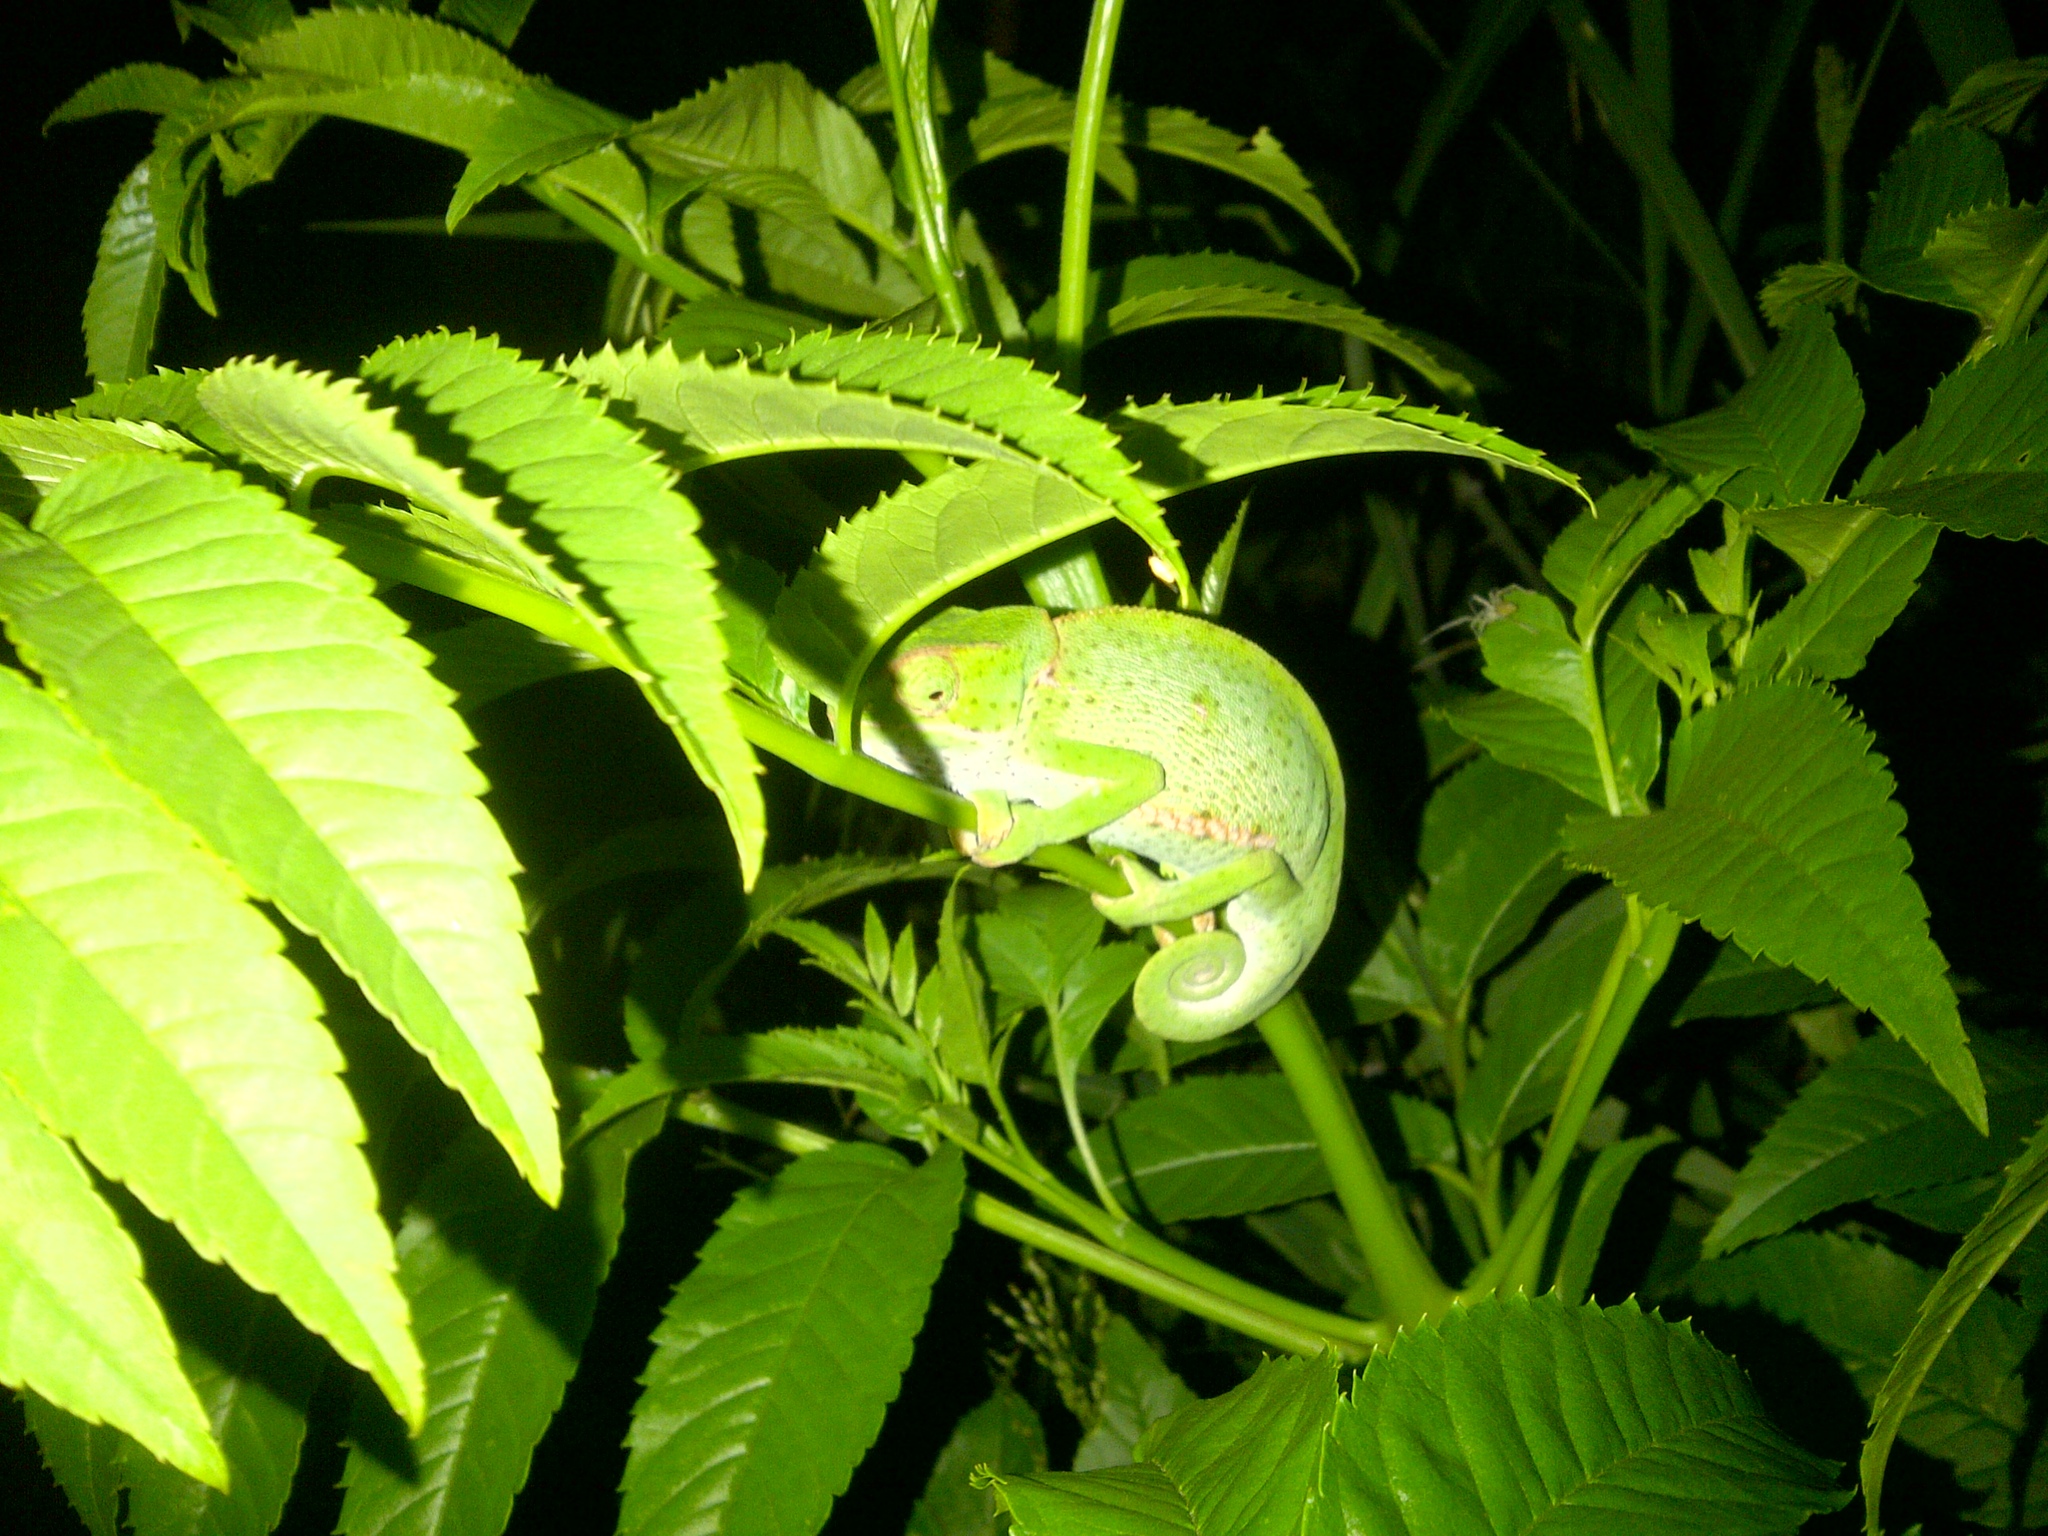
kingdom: Animalia
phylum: Chordata
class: Squamata
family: Chamaeleonidae
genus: Chamaeleo
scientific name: Chamaeleo dilepis
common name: Flapneck chameleon
